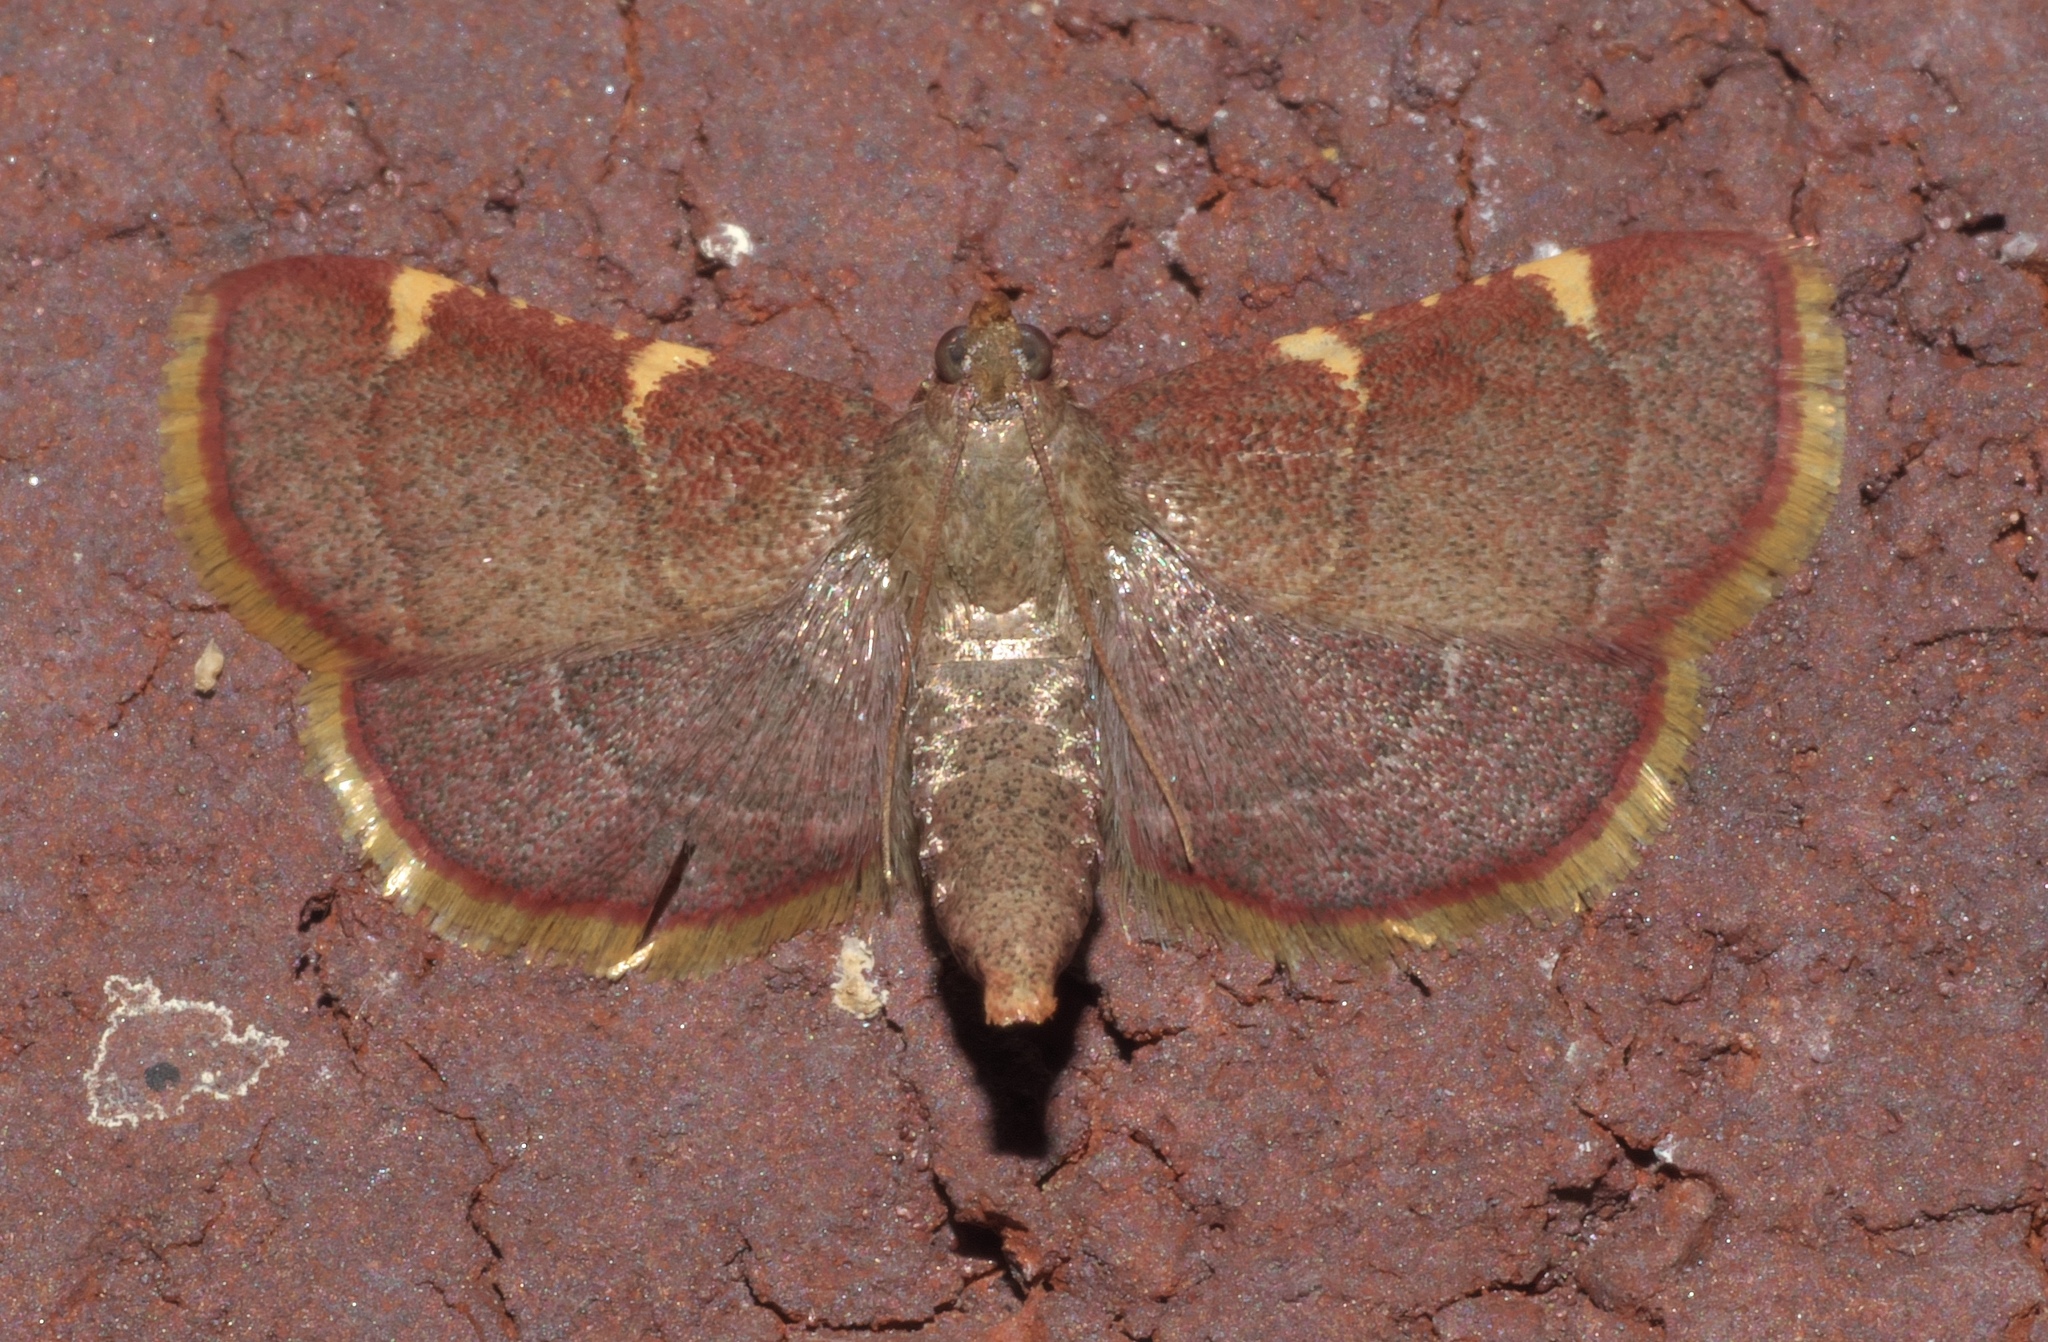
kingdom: Animalia
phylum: Arthropoda
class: Insecta
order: Lepidoptera
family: Pyralidae
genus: Hypsopygia
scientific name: Hypsopygia olinalis
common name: Yellow-fringed dolichomia moth
